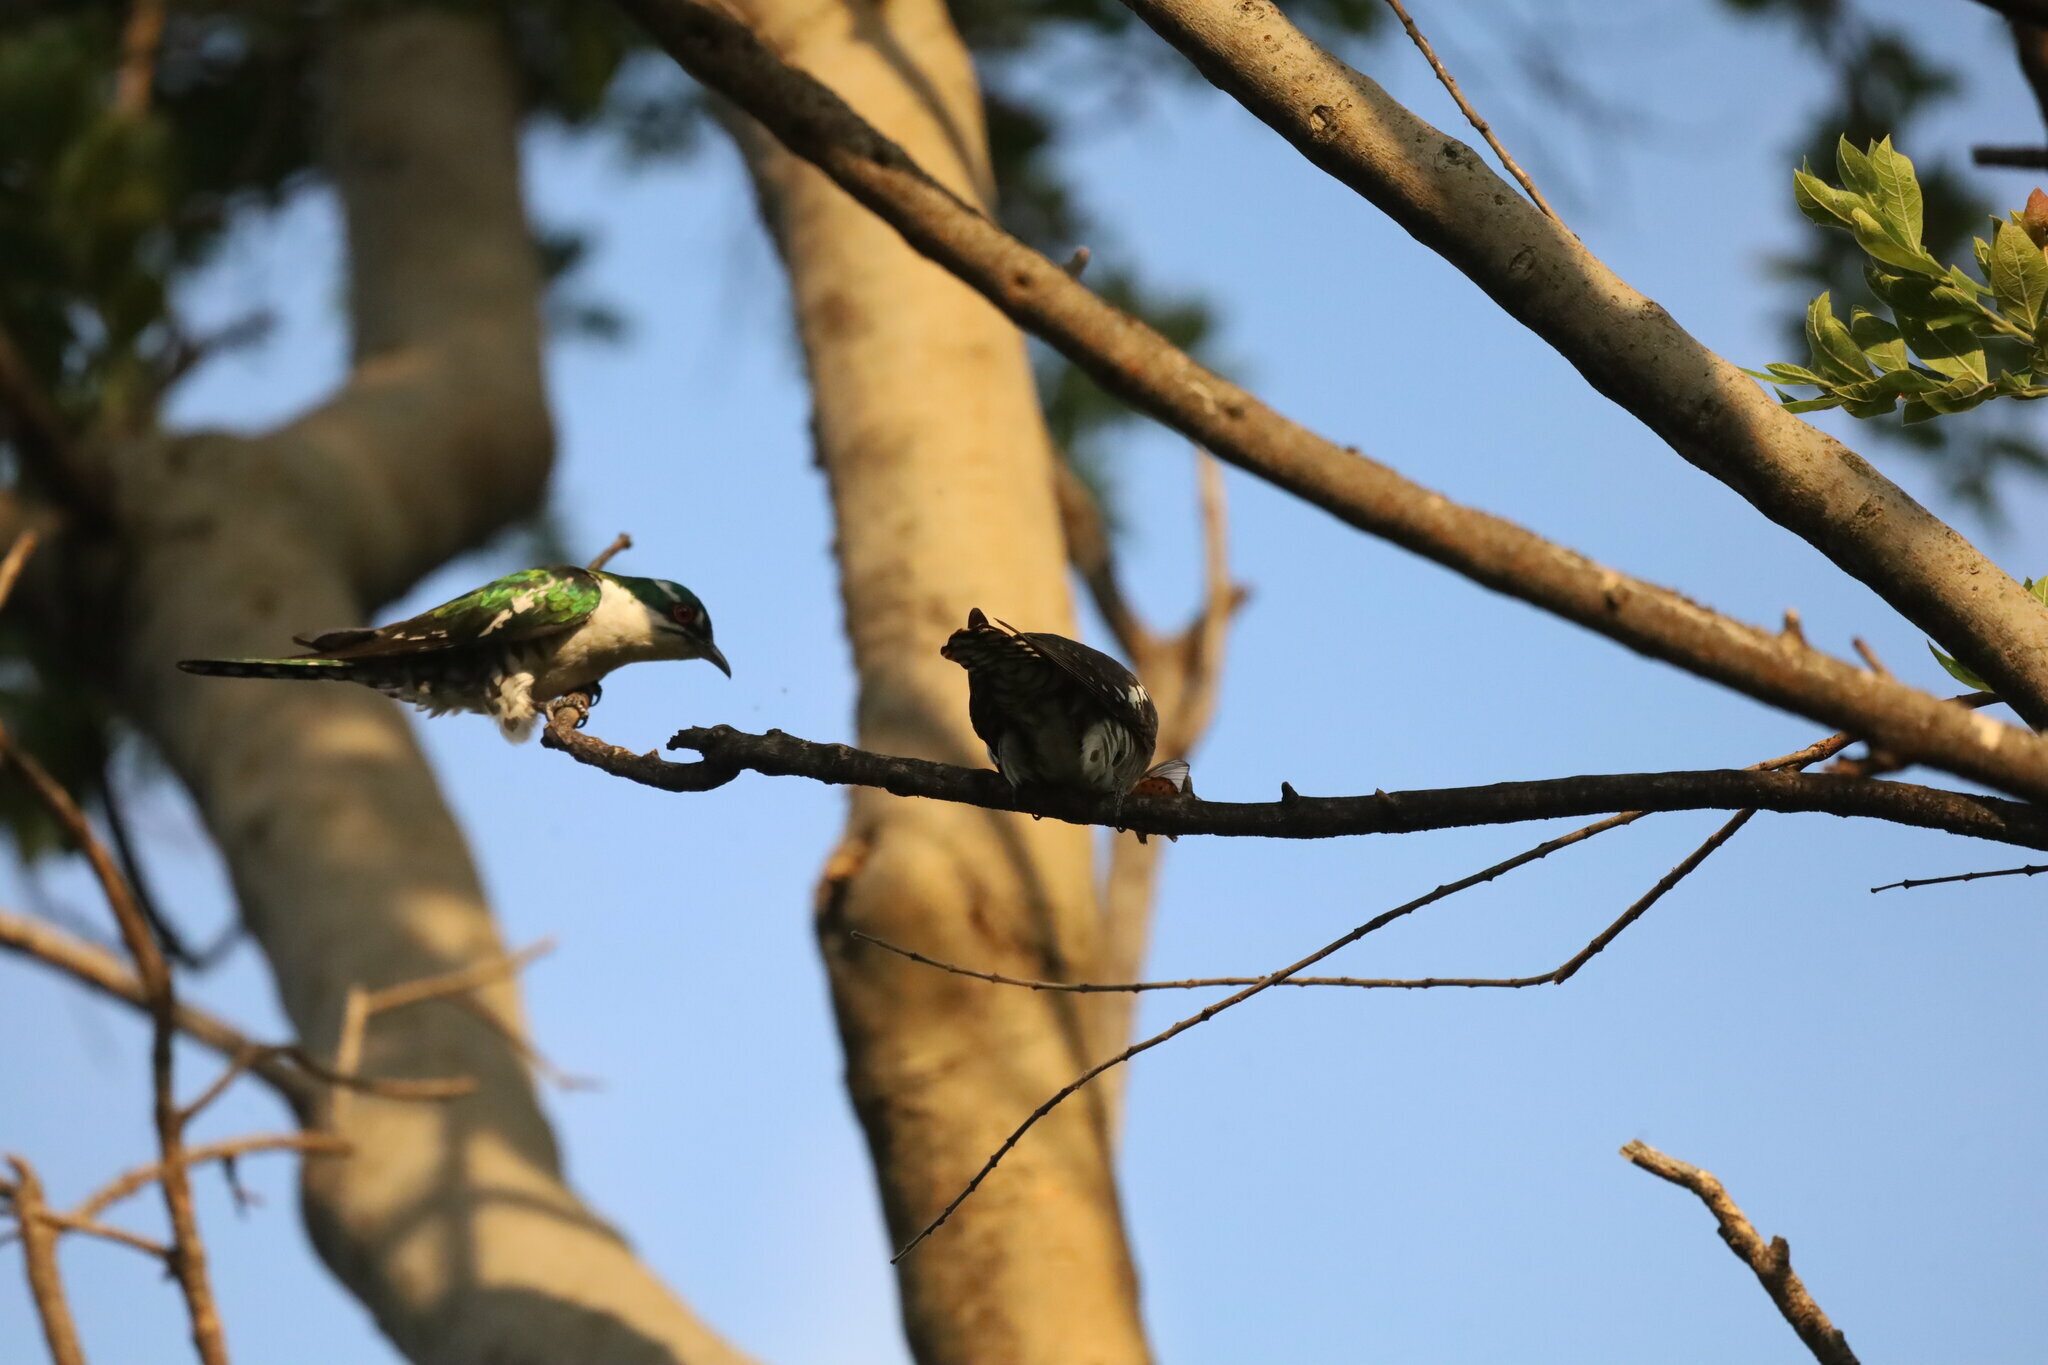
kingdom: Animalia
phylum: Chordata
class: Aves
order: Cuculiformes
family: Cuculidae
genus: Chrysococcyx
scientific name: Chrysococcyx caprius
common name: Diederik cuckoo
